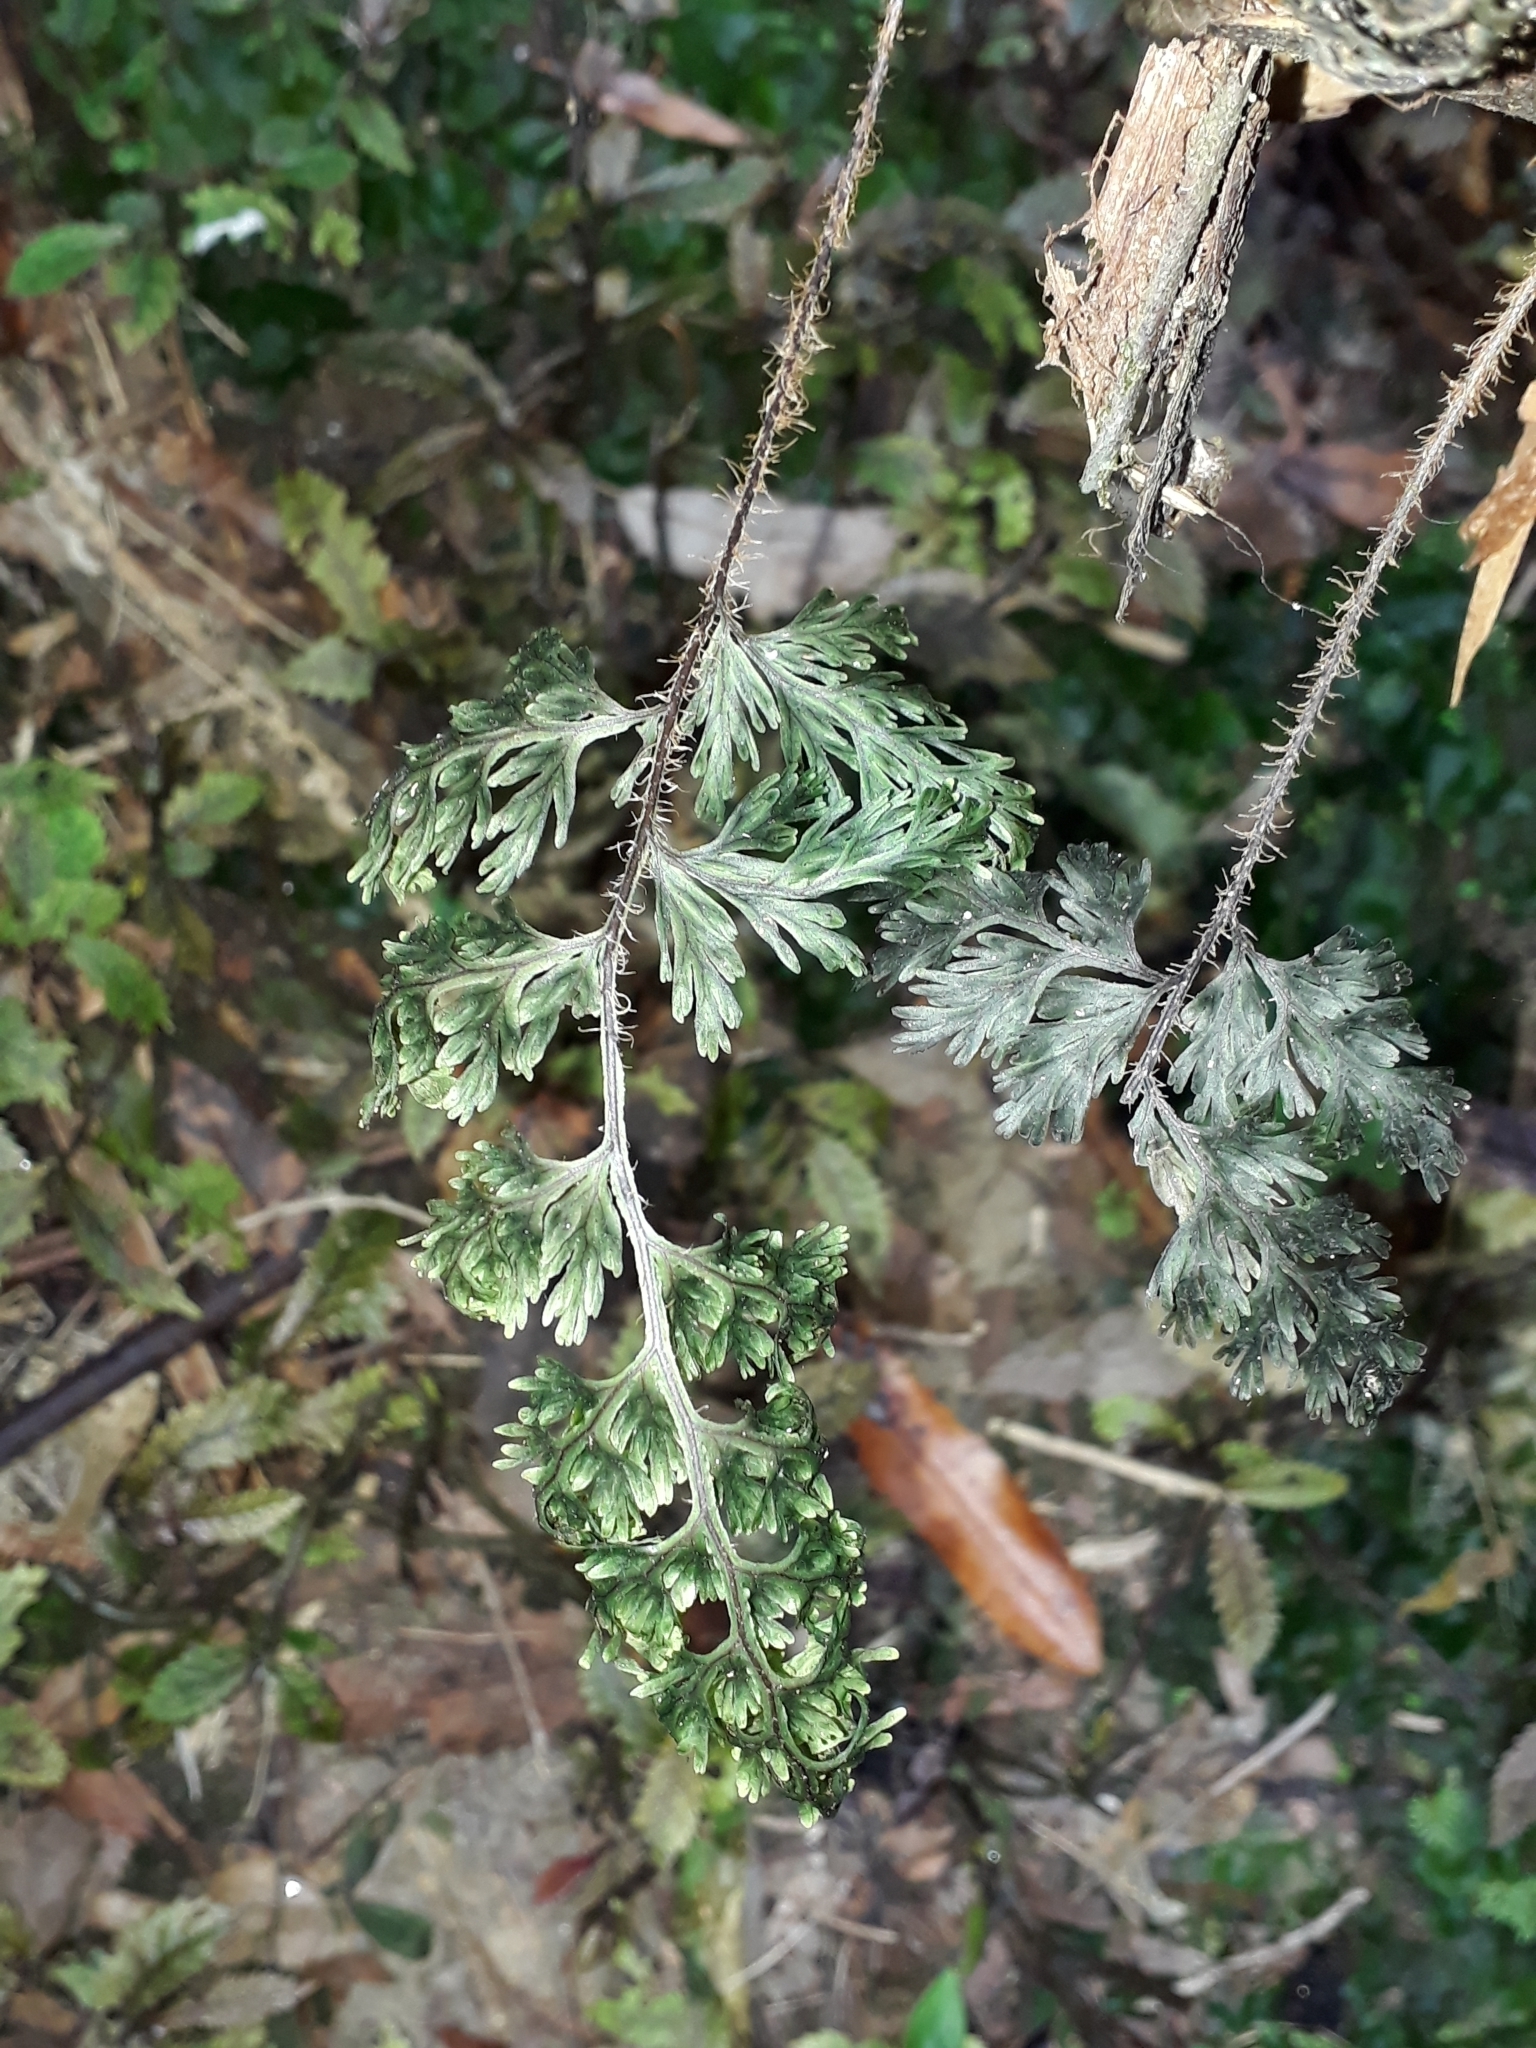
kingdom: Plantae
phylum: Tracheophyta
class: Polypodiopsida
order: Hymenophyllales
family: Hymenophyllaceae
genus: Hymenophyllum
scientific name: Hymenophyllum scabrum
